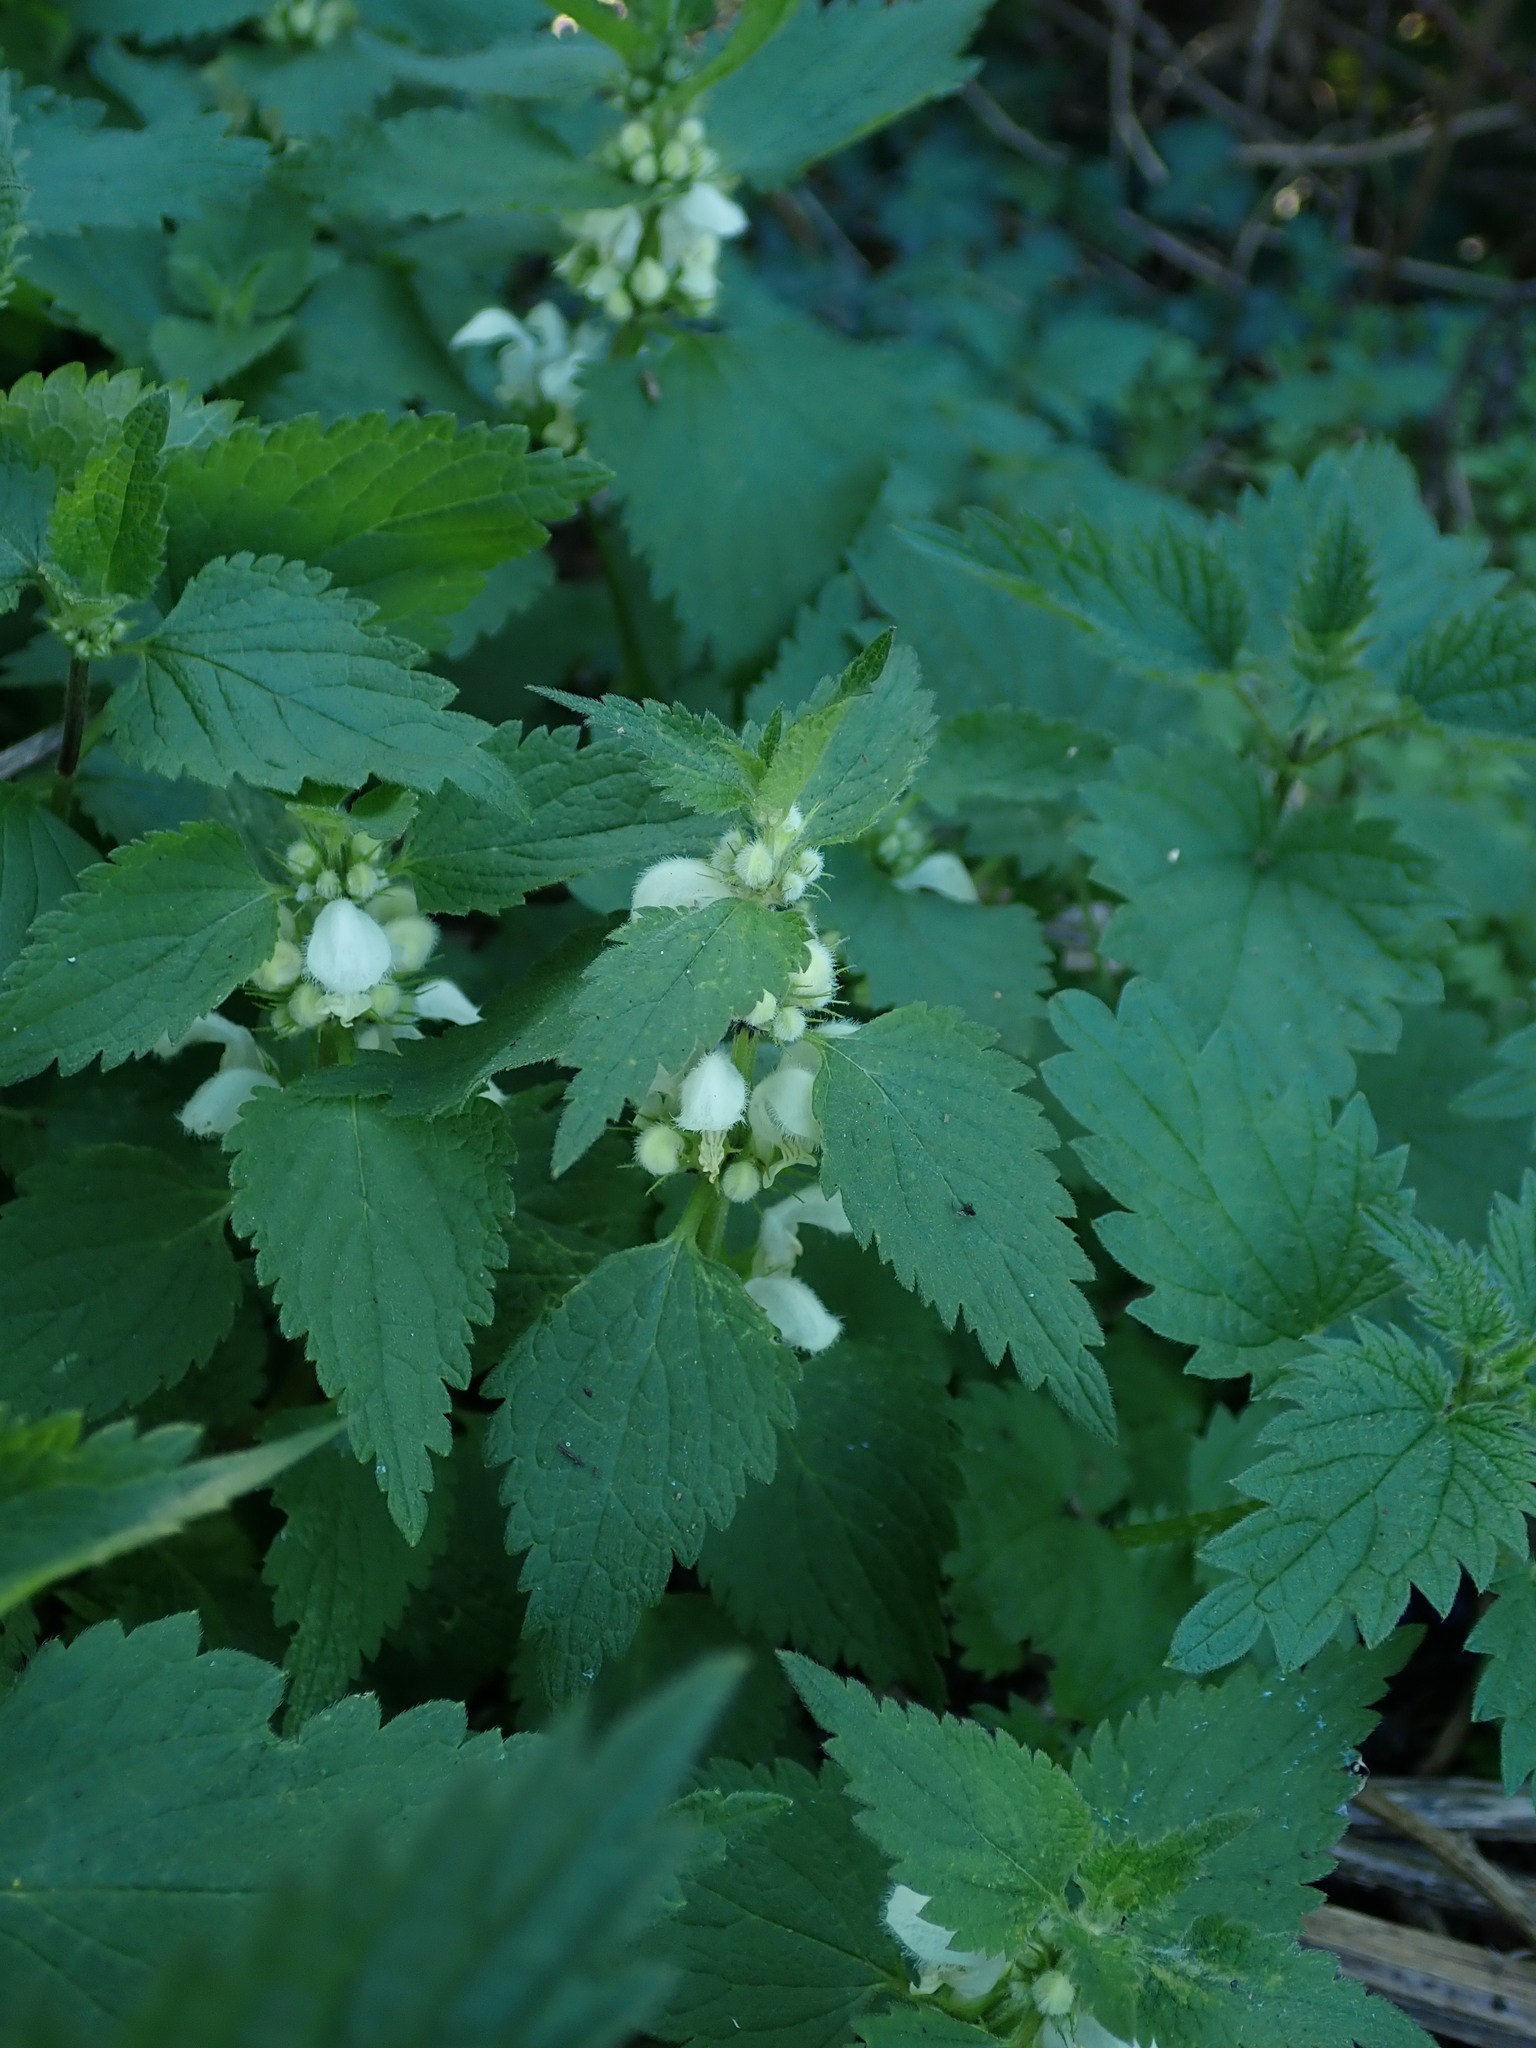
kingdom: Plantae
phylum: Tracheophyta
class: Magnoliopsida
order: Lamiales
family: Lamiaceae
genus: Lamium
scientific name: Lamium album
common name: White dead-nettle
